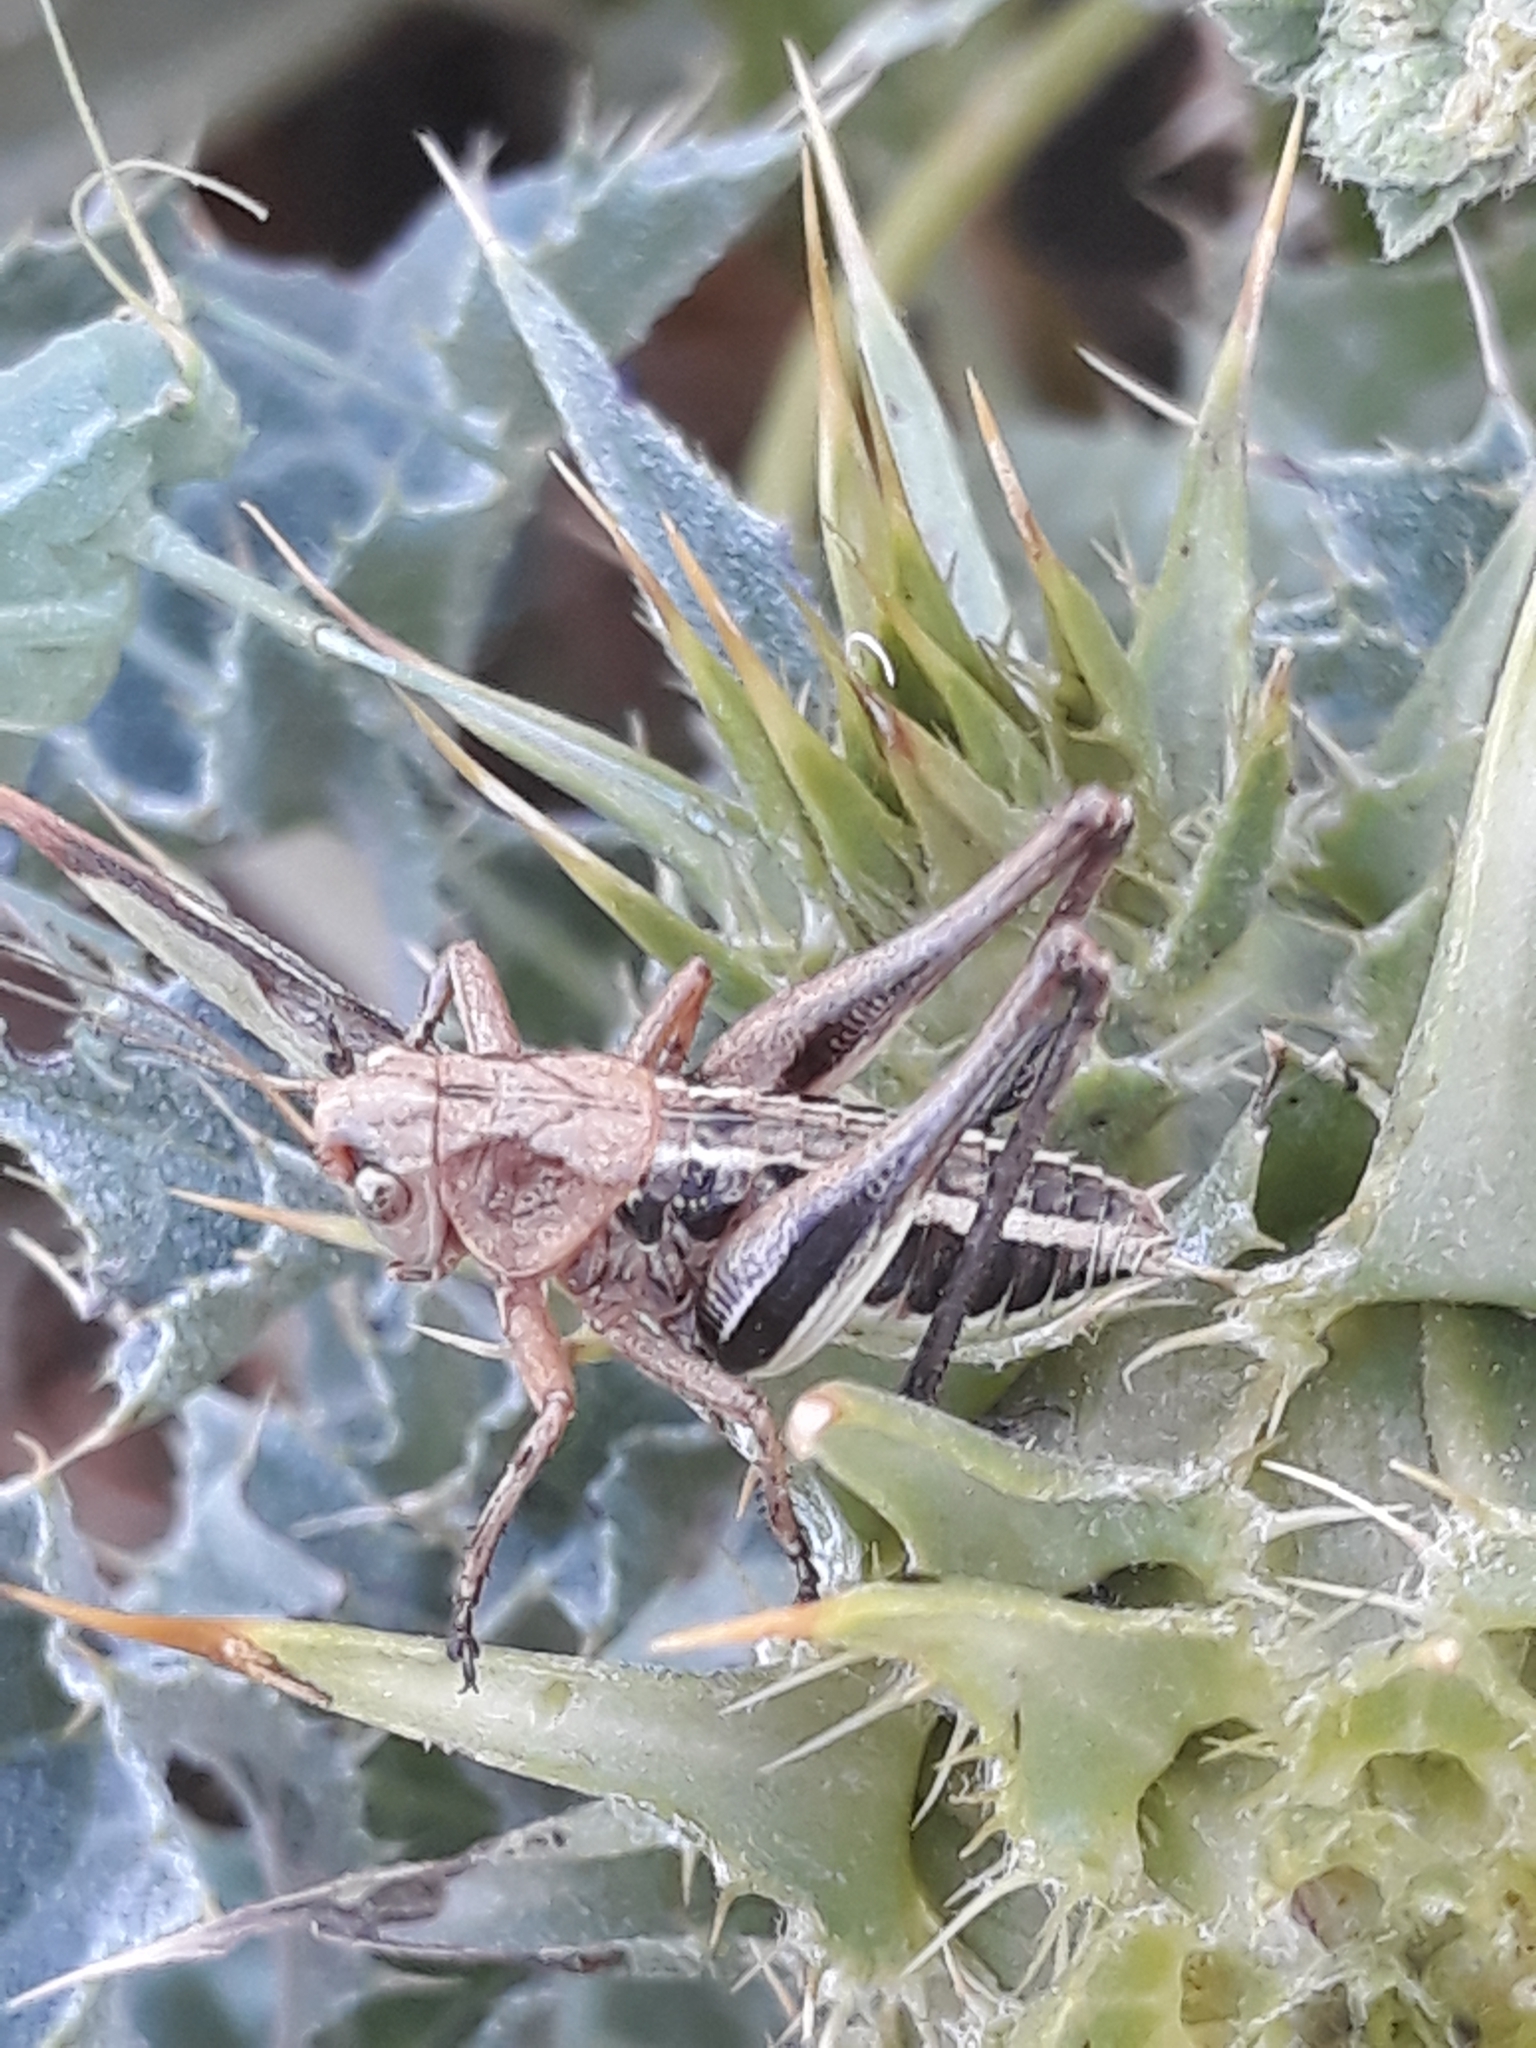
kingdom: Animalia
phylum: Arthropoda
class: Insecta
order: Orthoptera
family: Tettigoniidae
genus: Decticus
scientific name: Decticus albifrons
